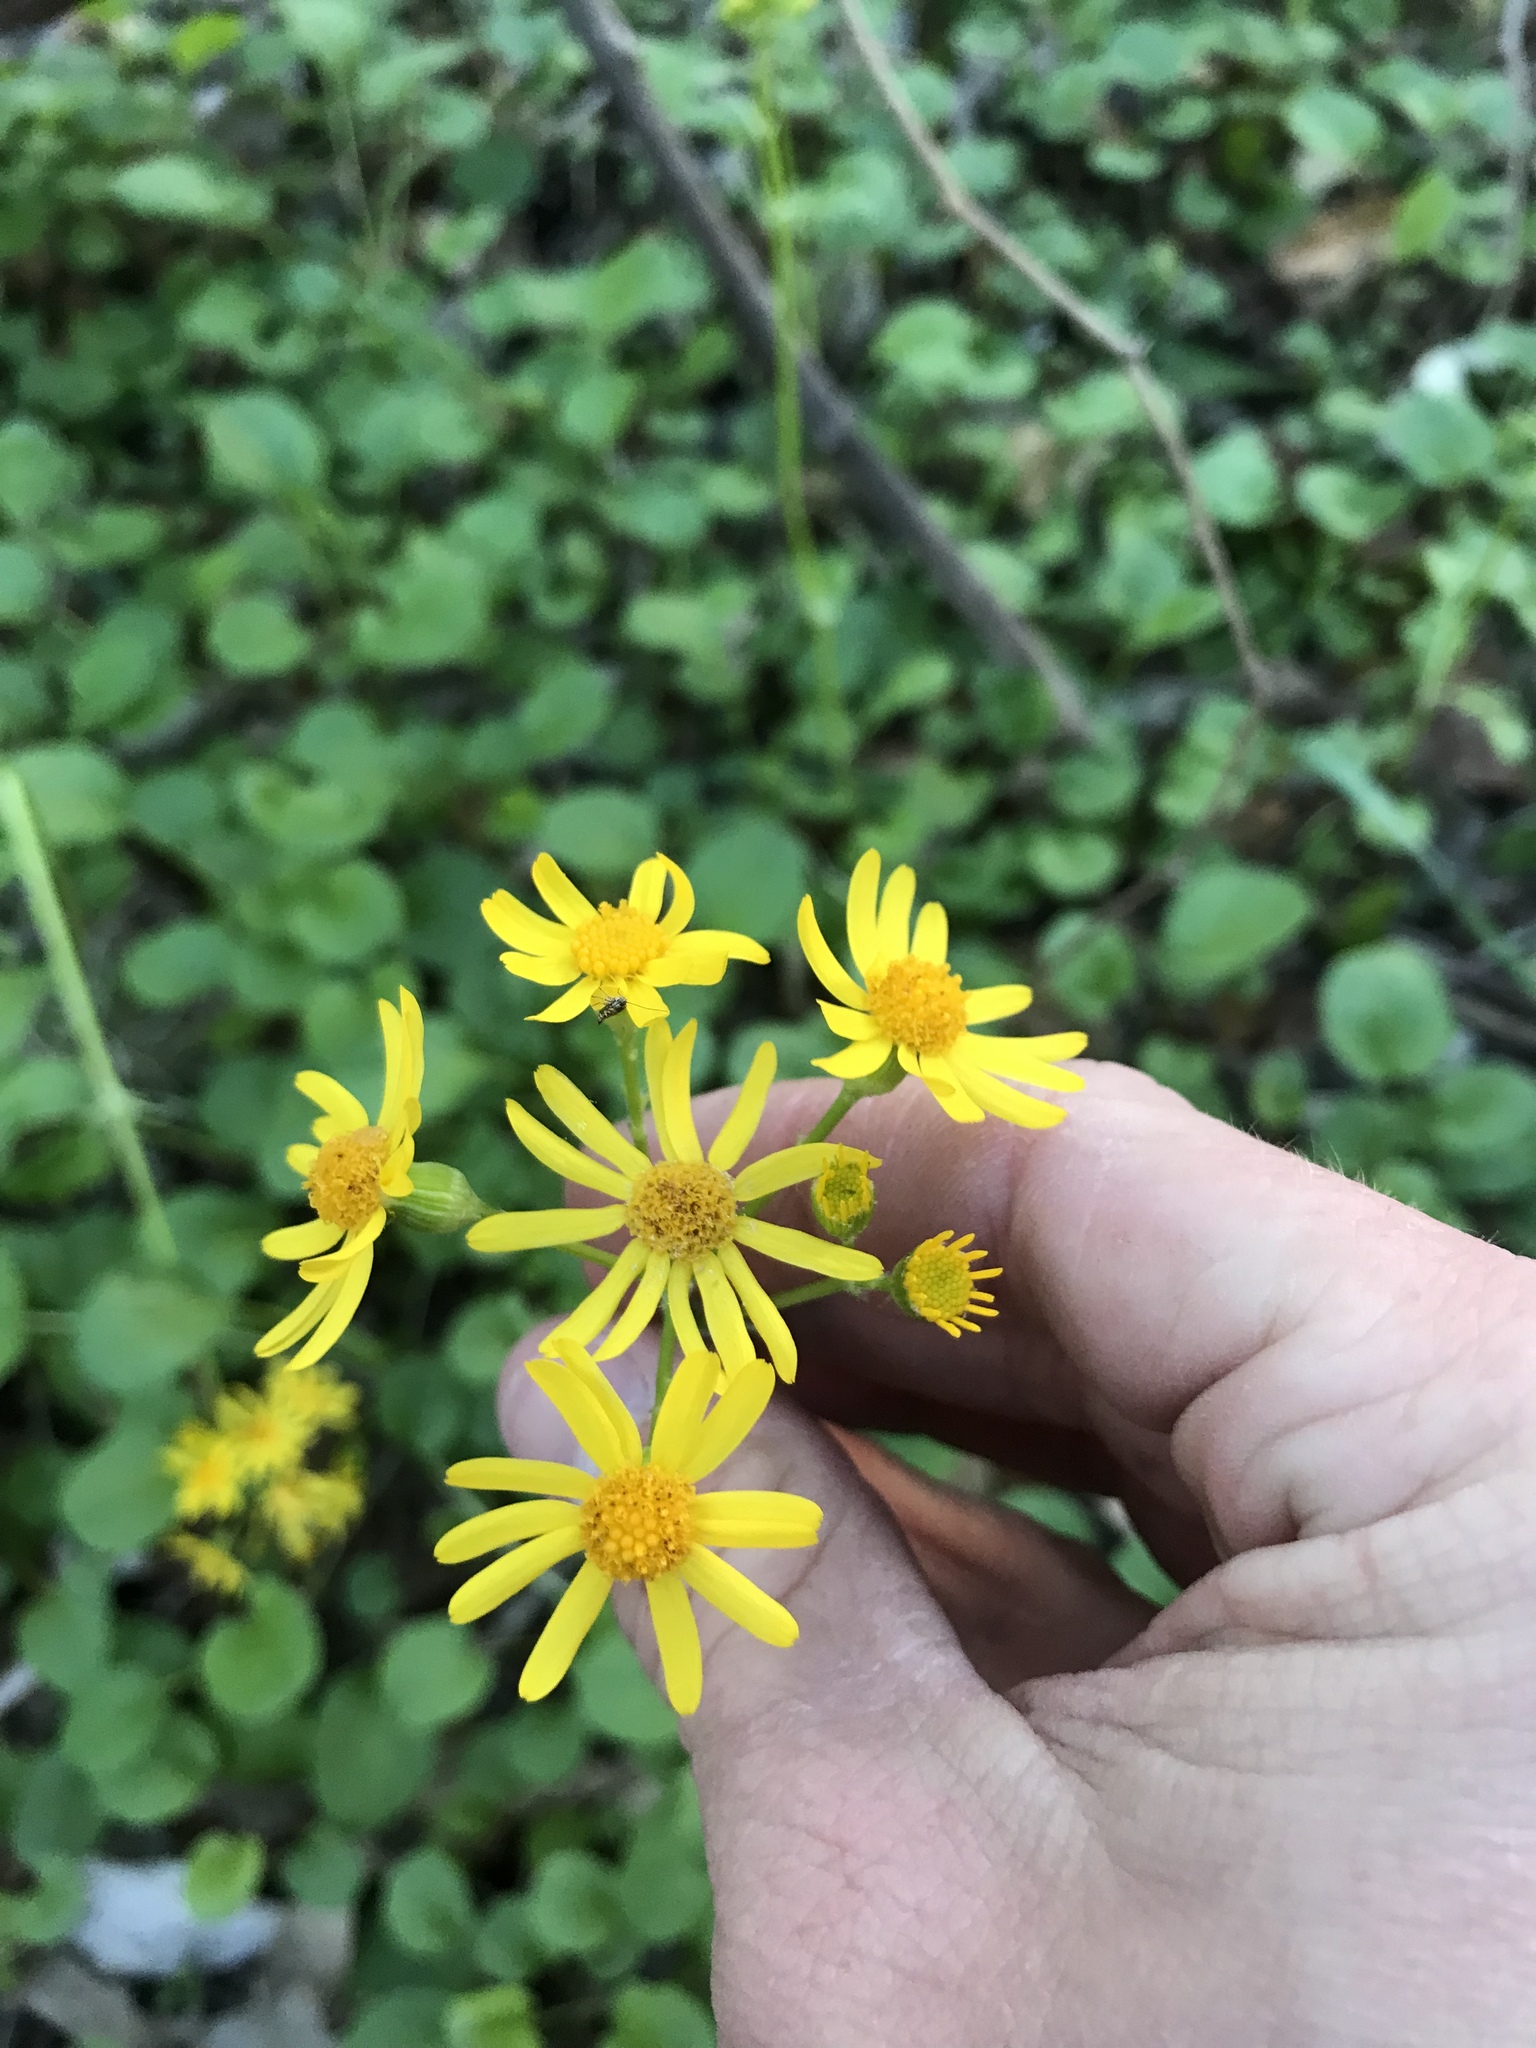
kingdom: Plantae
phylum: Tracheophyta
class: Magnoliopsida
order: Asterales
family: Asteraceae
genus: Packera
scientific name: Packera obovata
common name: Round-leaf ragwort
